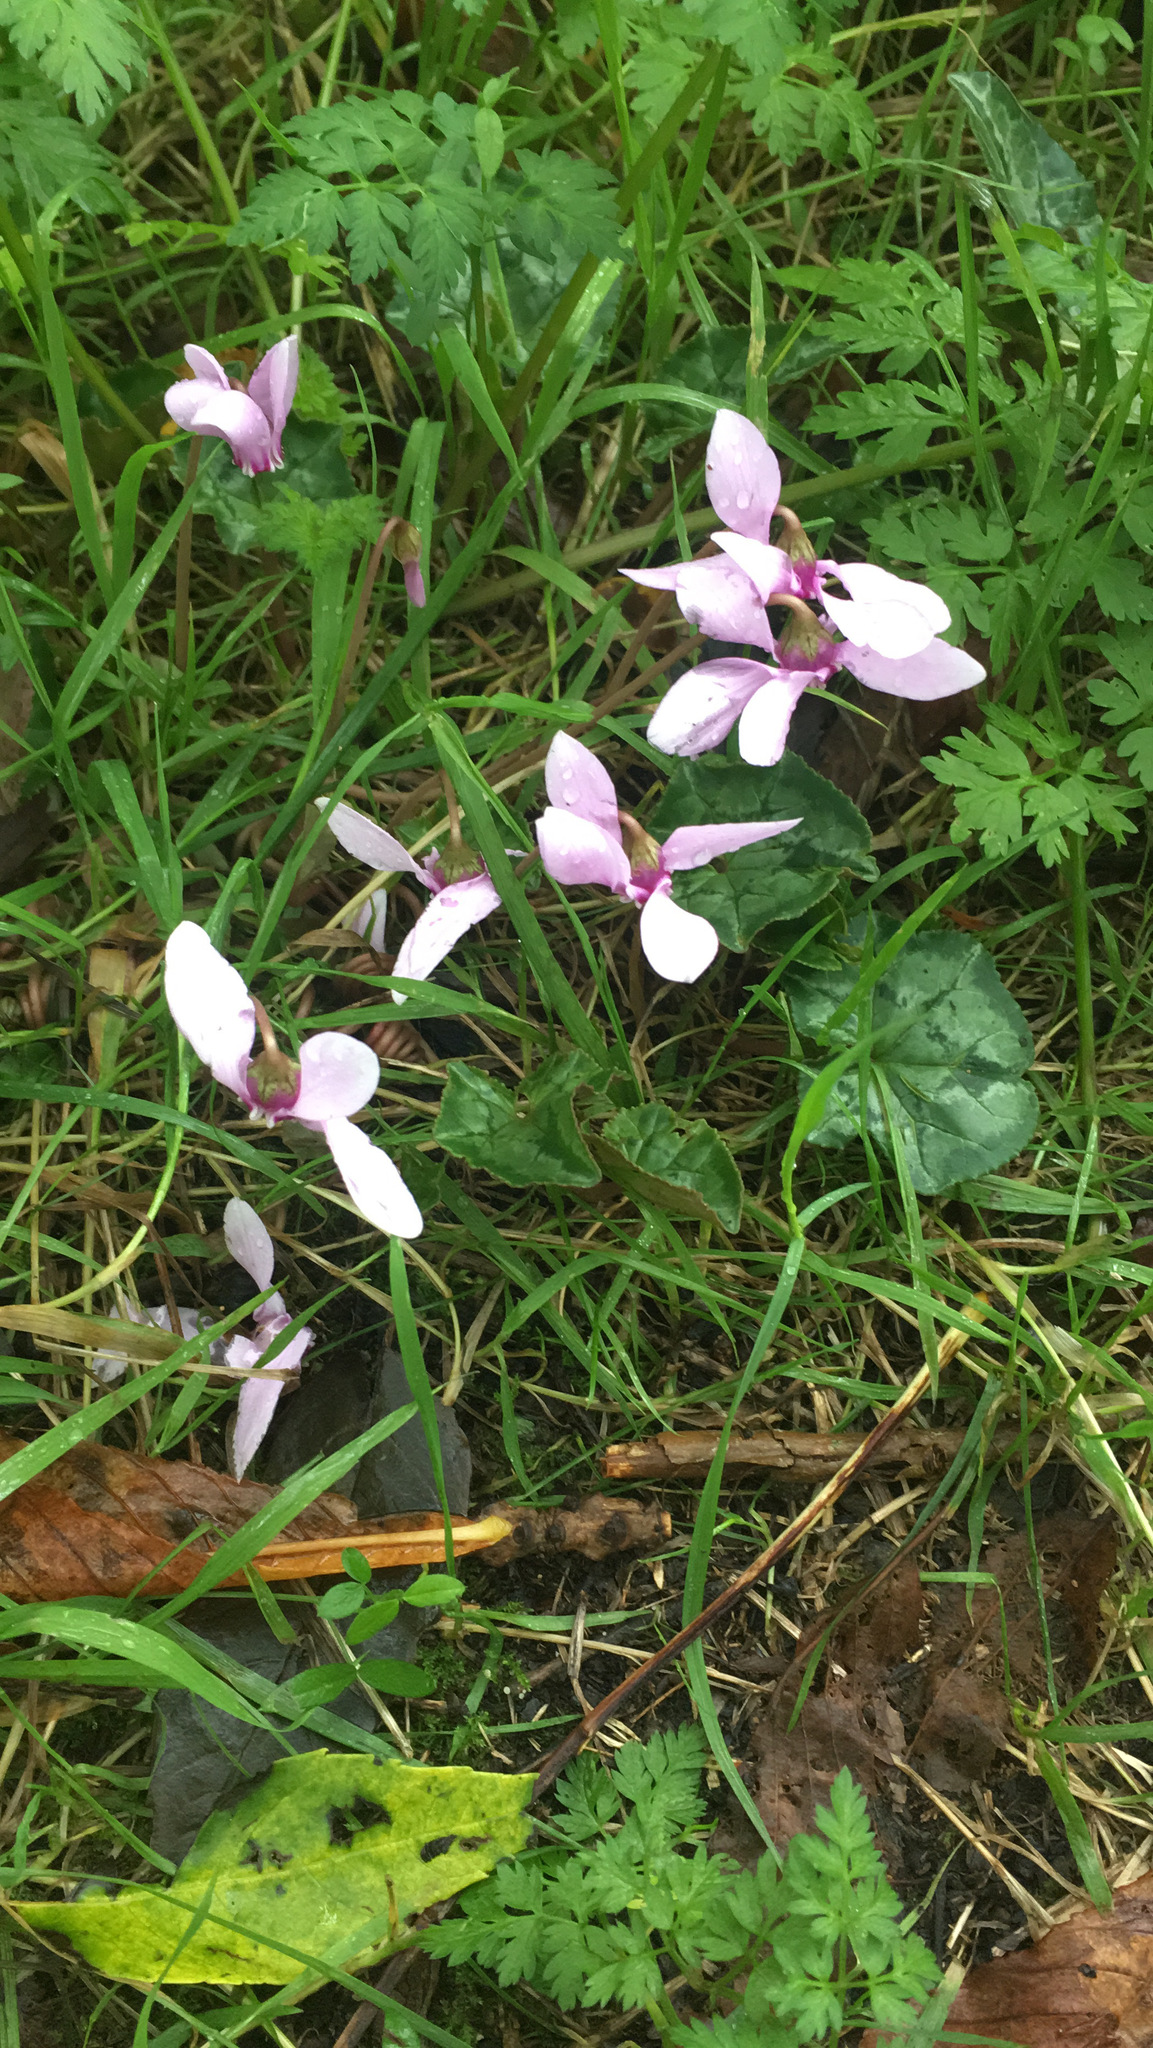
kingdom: Plantae
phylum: Tracheophyta
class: Magnoliopsida
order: Ericales
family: Primulaceae
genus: Cyclamen
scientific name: Cyclamen hederifolium
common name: Sowbread
